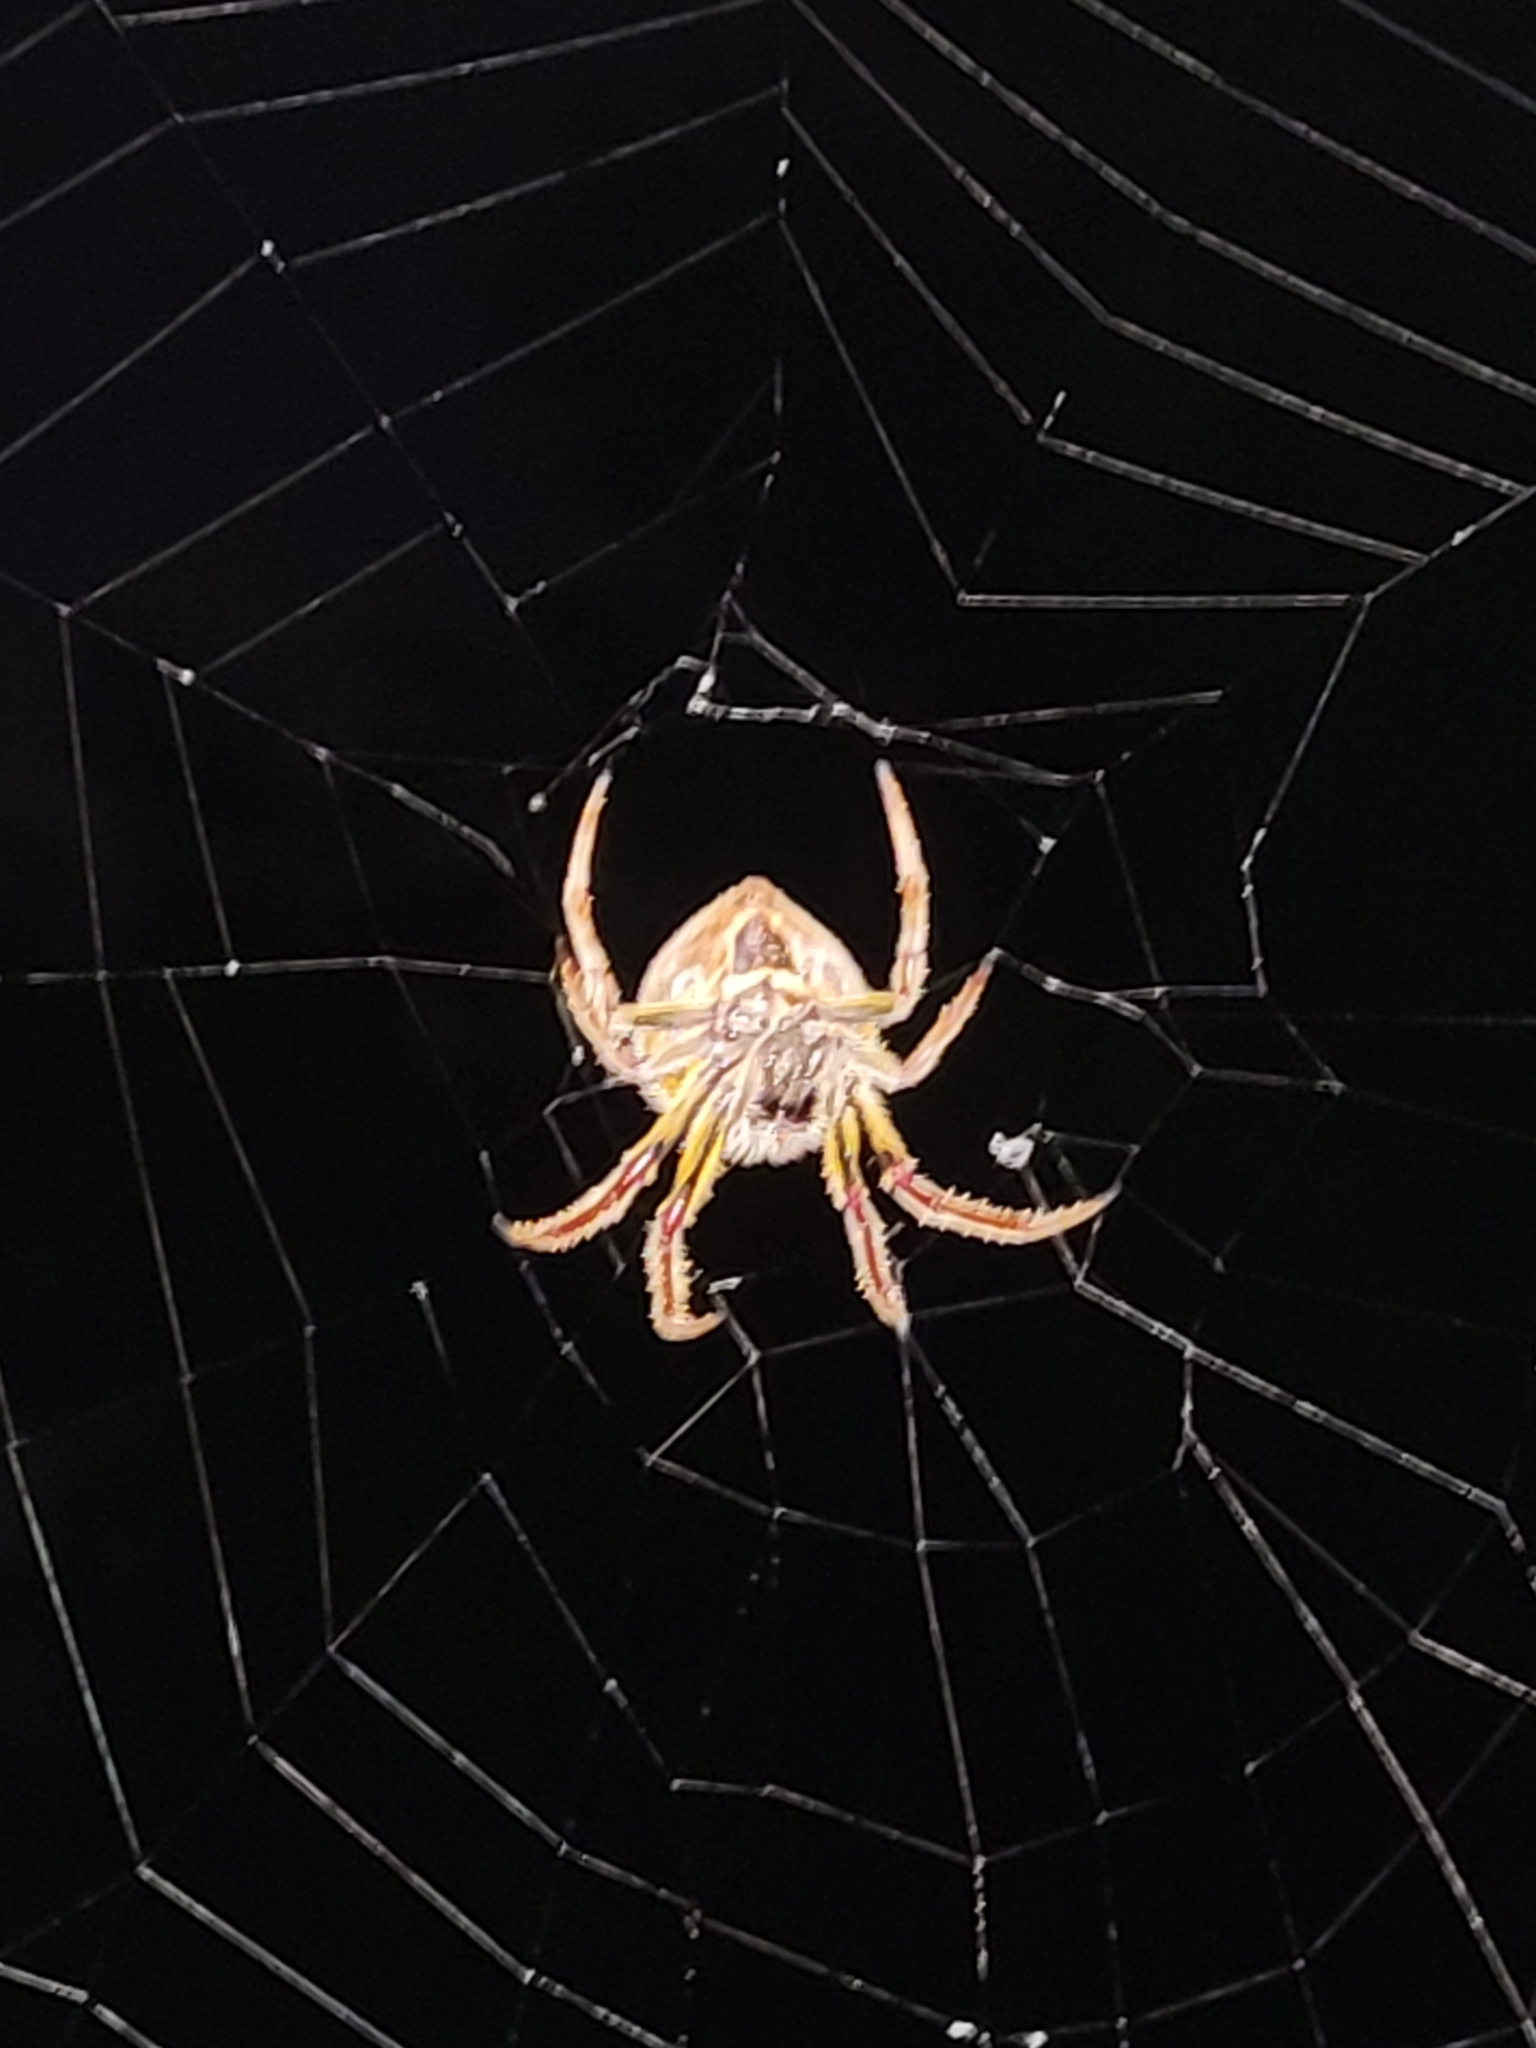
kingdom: Animalia
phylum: Arthropoda
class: Arachnida
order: Araneae
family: Araneidae
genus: Eriophora
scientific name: Eriophora ravilla
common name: Orb weavers
